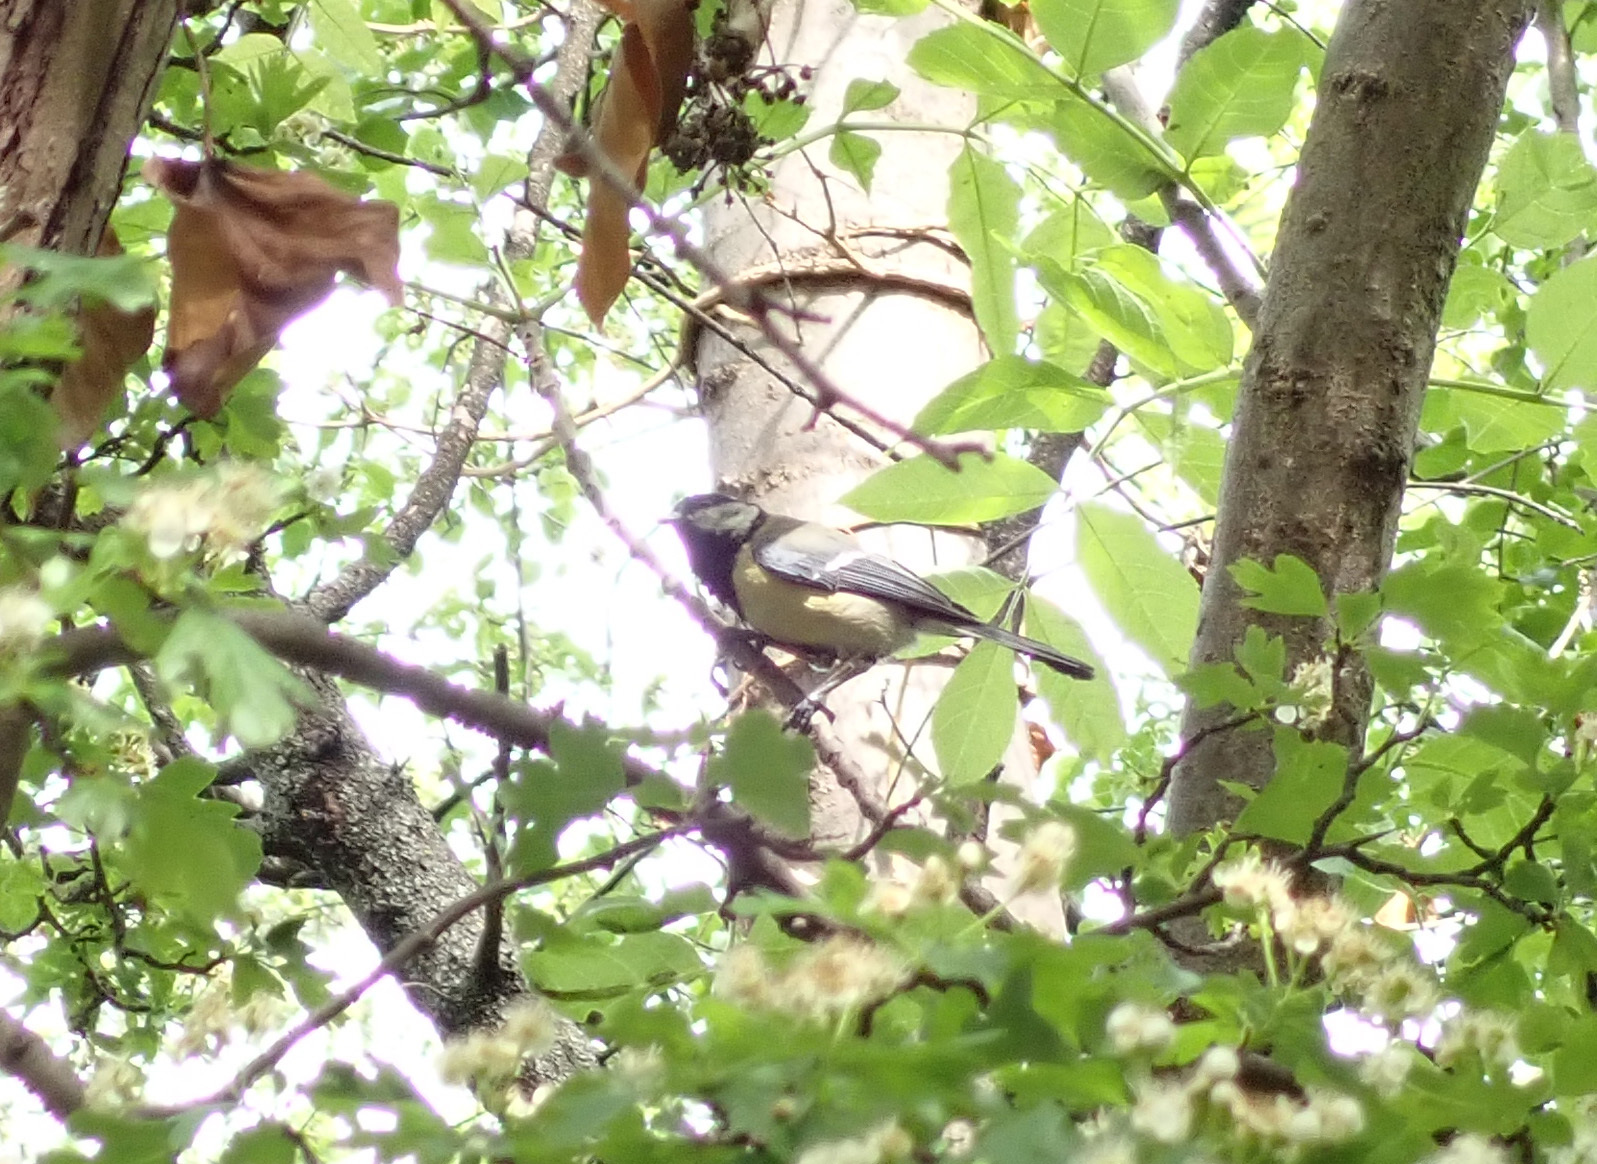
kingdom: Animalia
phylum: Chordata
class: Aves
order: Passeriformes
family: Paridae
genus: Parus
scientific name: Parus major
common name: Great tit
